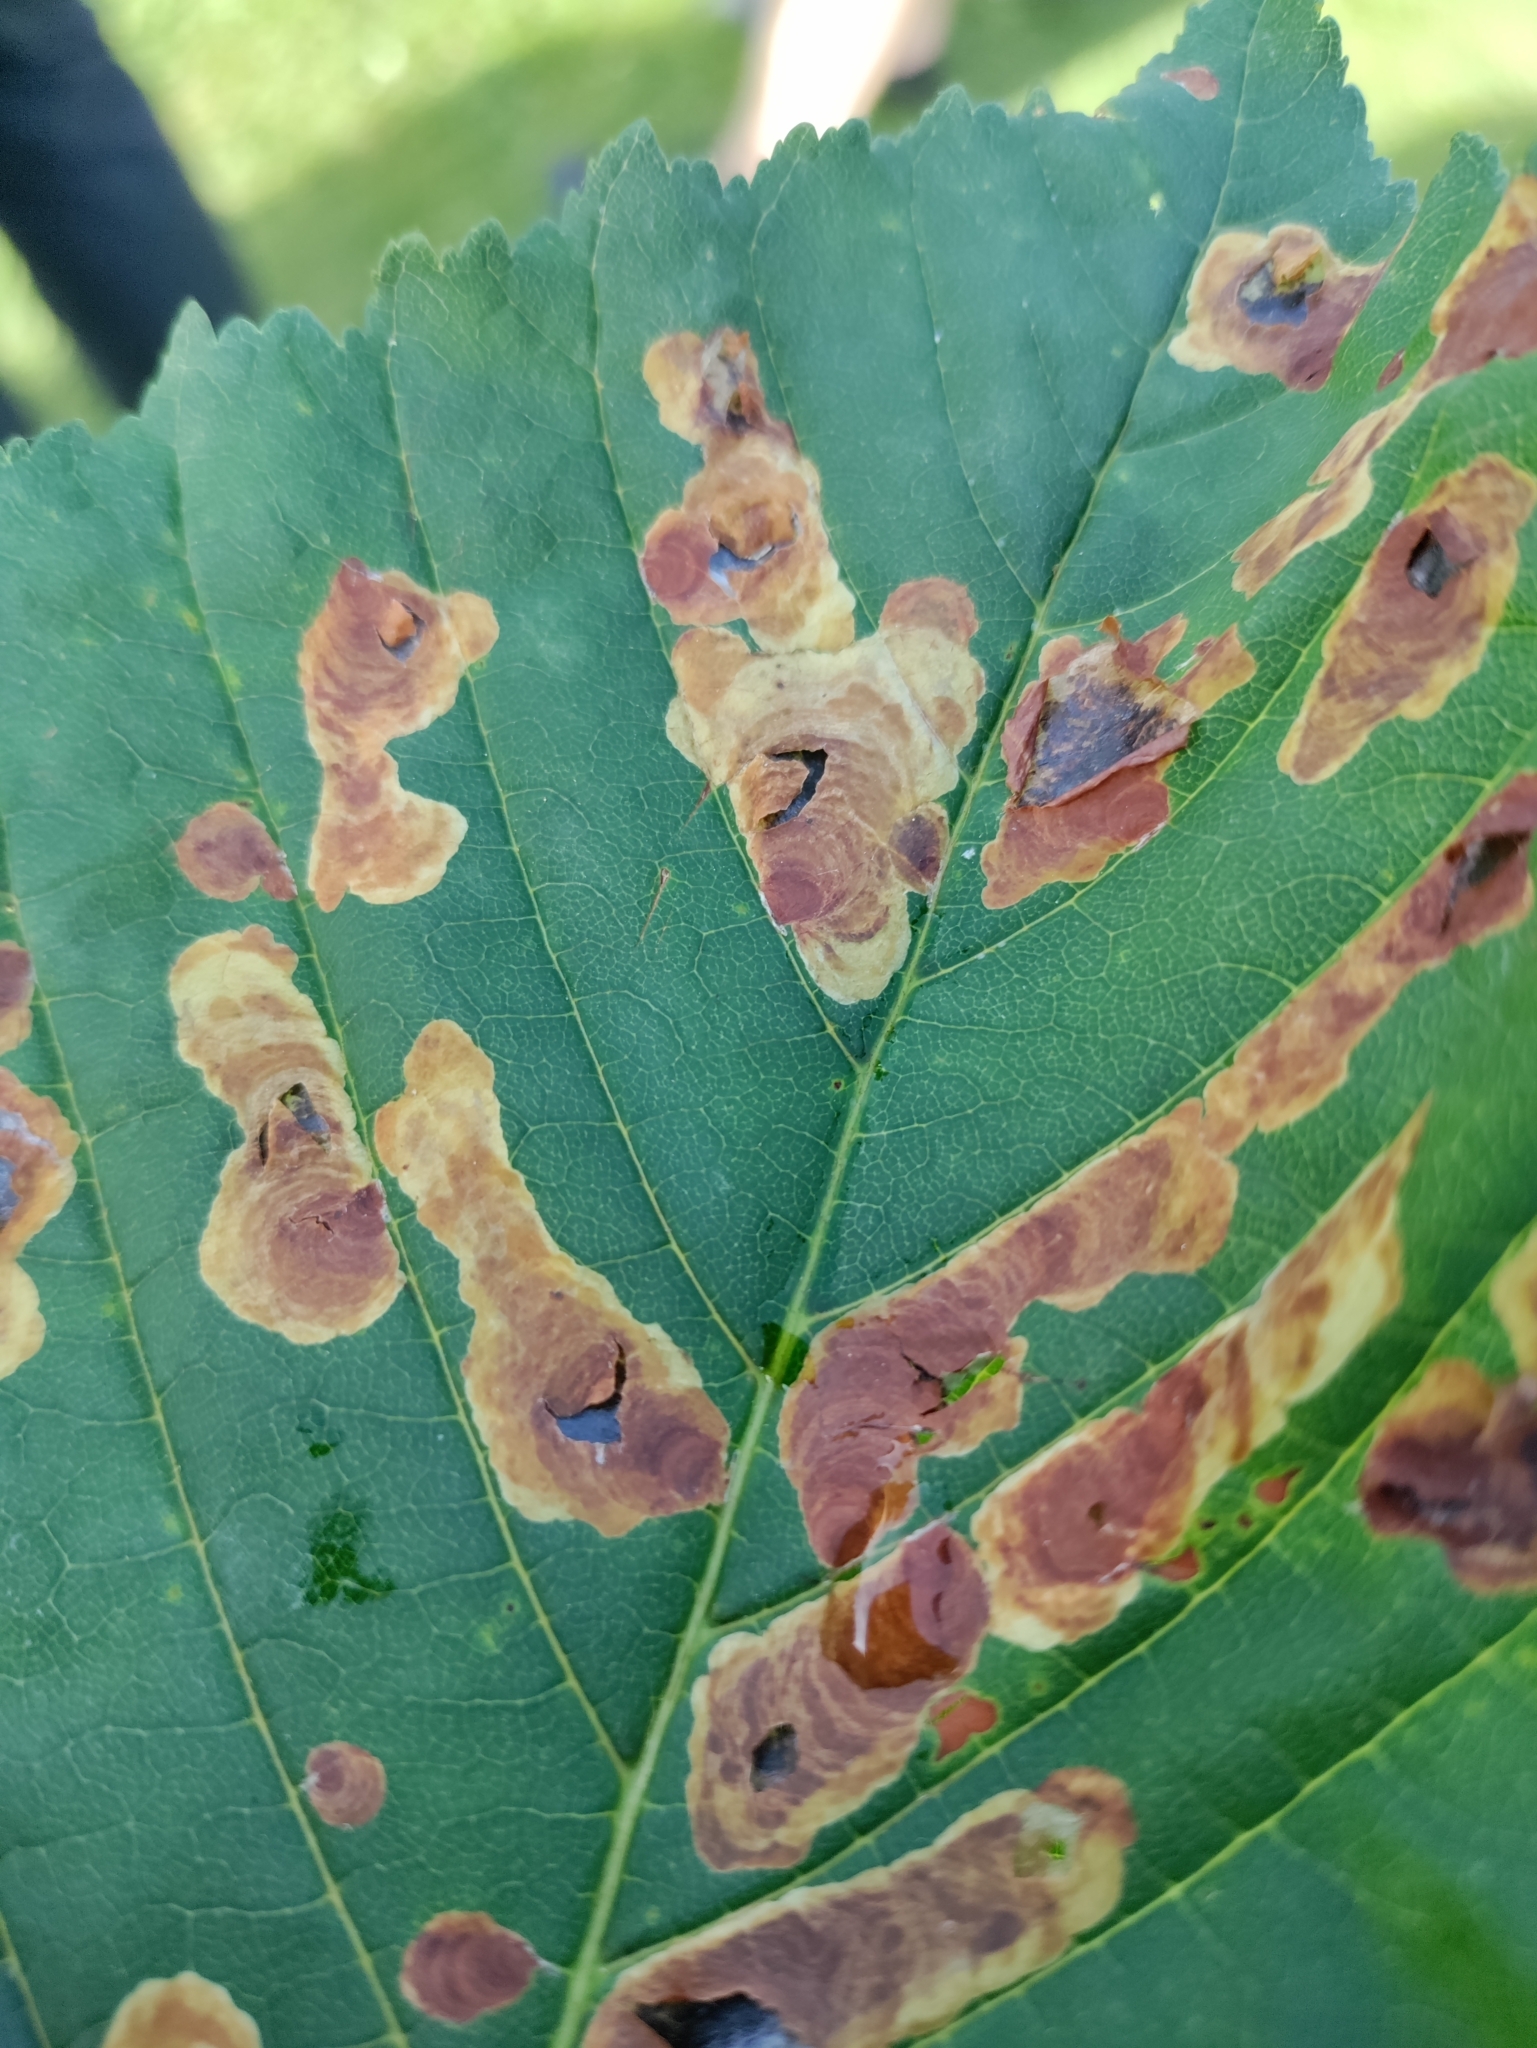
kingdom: Animalia
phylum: Arthropoda
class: Insecta
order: Lepidoptera
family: Gracillariidae
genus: Cameraria
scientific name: Cameraria ohridella
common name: Horse-chestnut leaf-miner
